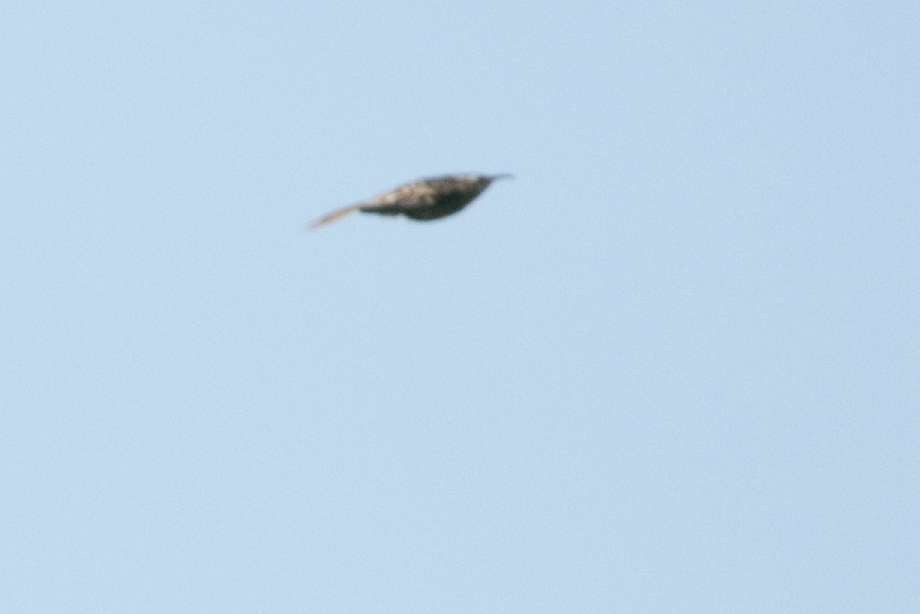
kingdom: Animalia
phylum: Chordata
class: Aves
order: Passeriformes
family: Certhiidae
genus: Certhia
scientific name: Certhia brachydactyla
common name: Short-toed treecreeper
